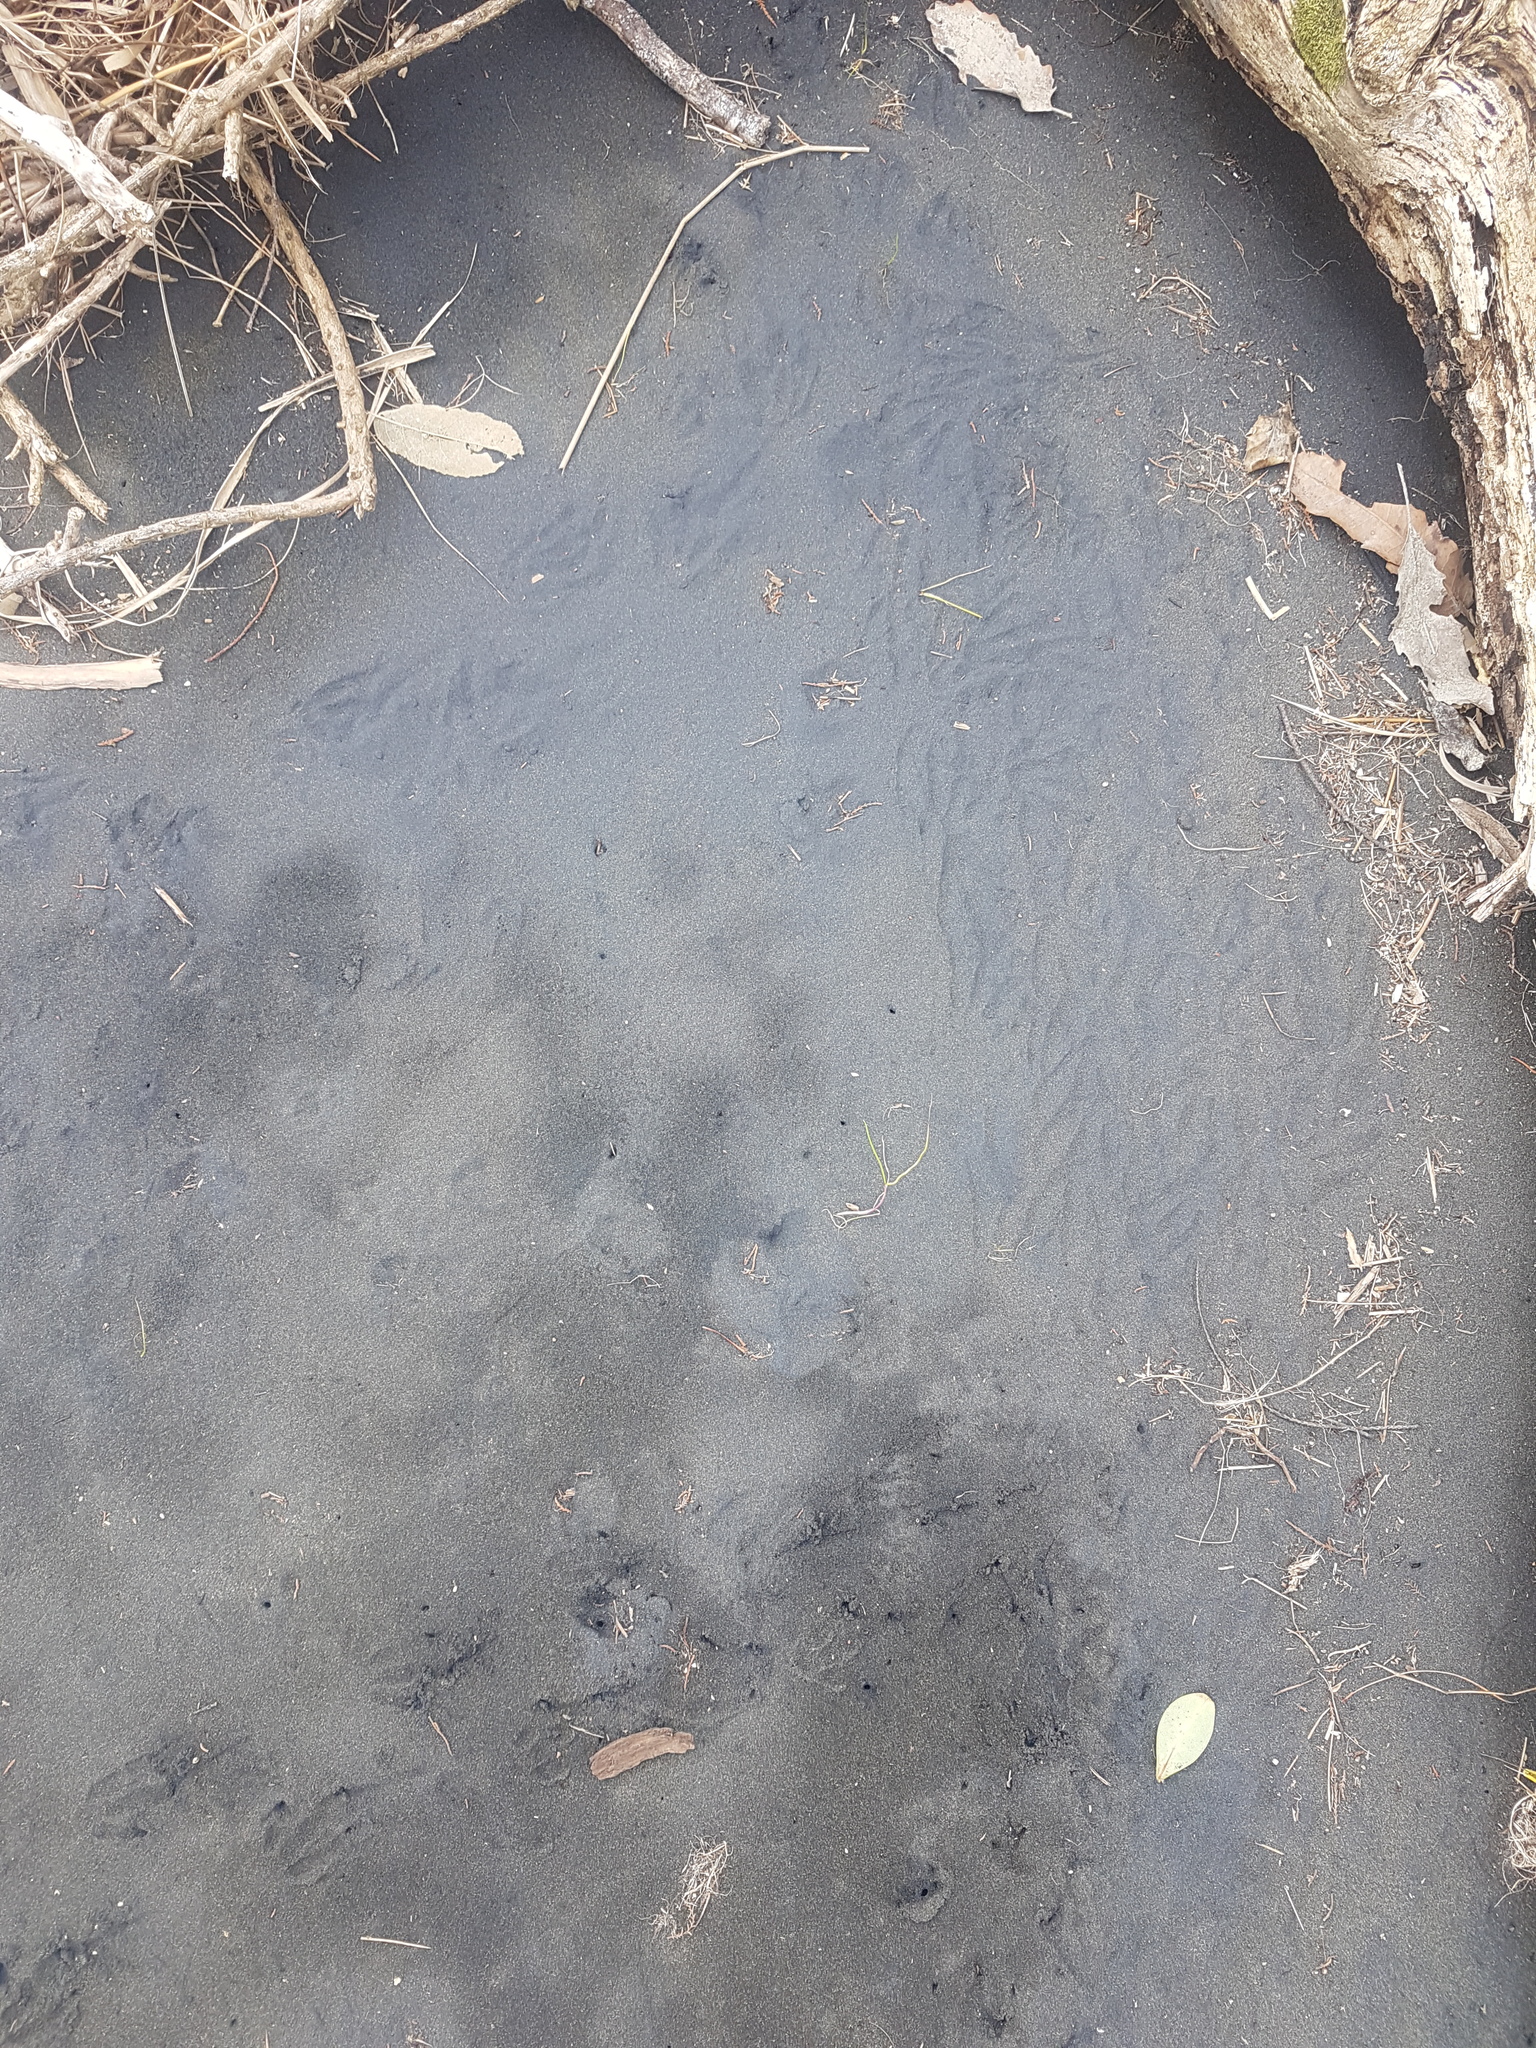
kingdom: Animalia
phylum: Chordata
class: Aves
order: Sphenisciformes
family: Spheniscidae
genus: Eudyptula
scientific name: Eudyptula minor
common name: Little penguin
